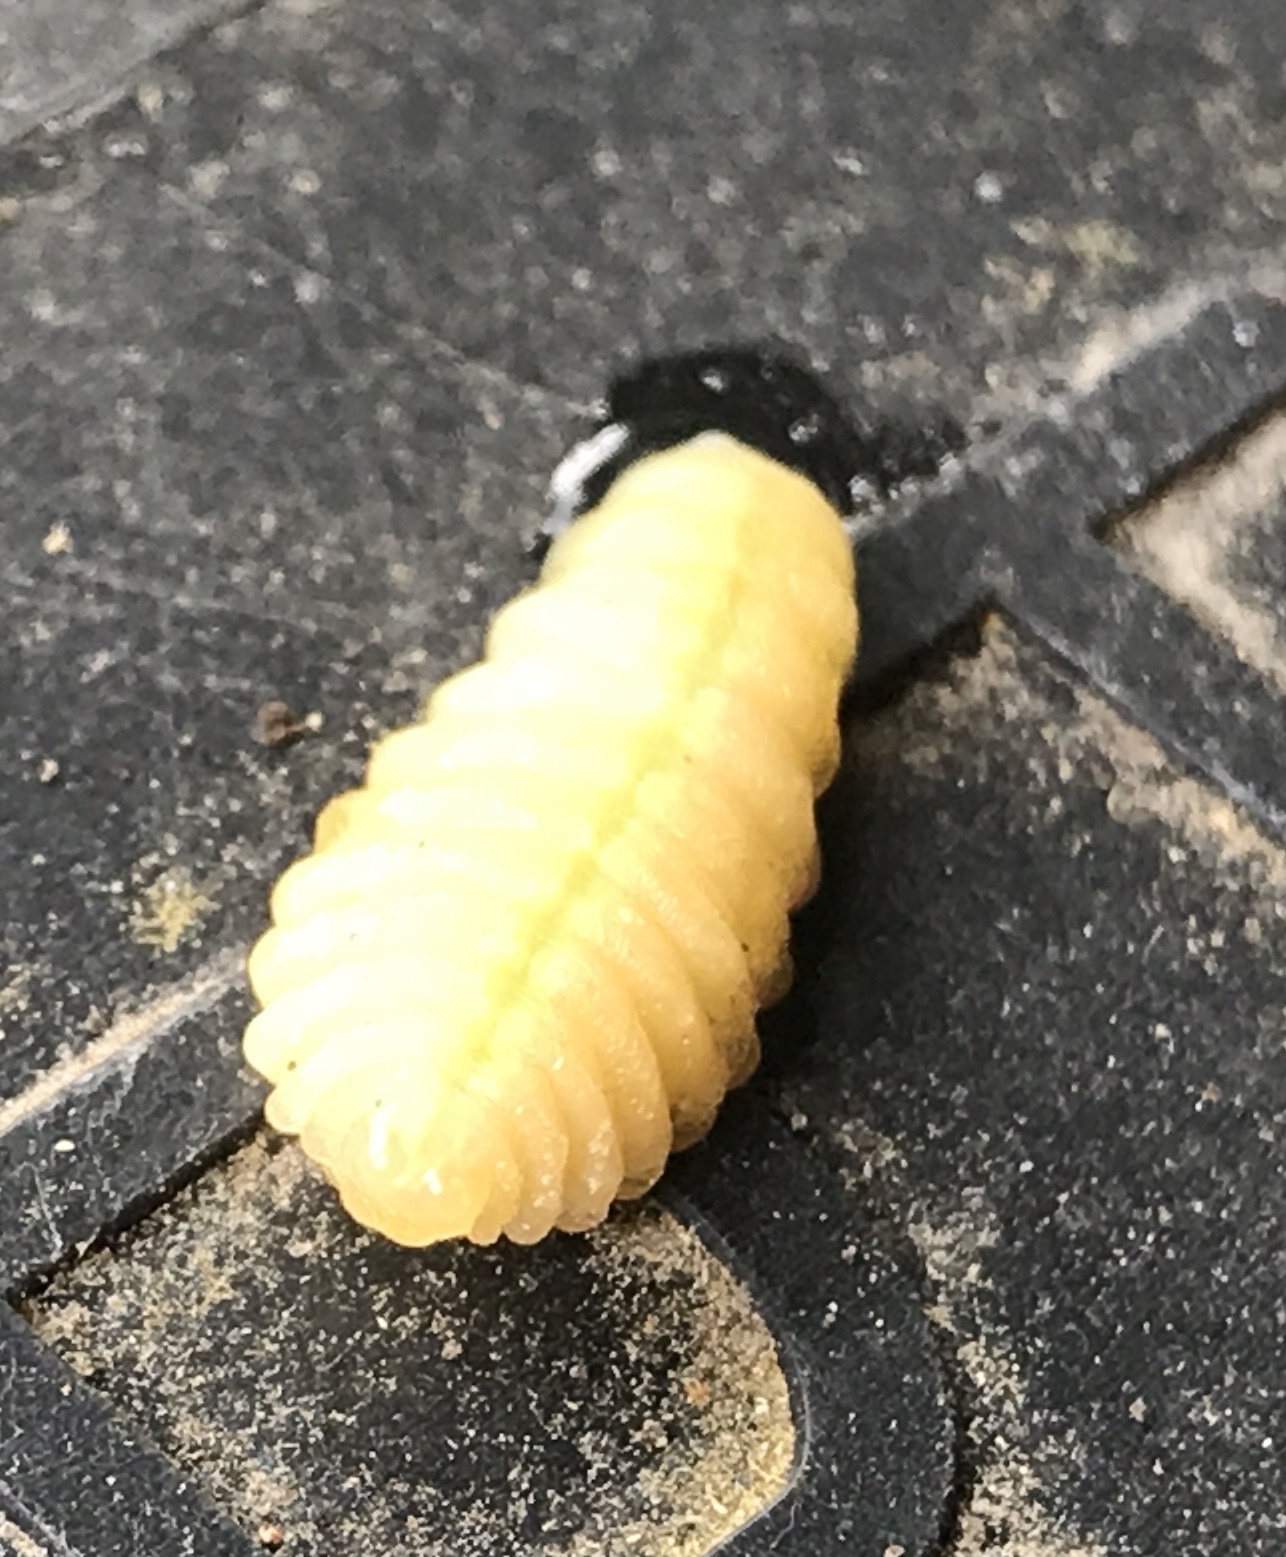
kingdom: Animalia
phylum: Arthropoda
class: Insecta
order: Hymenoptera
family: Sphecidae
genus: Sceliphron
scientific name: Sceliphron caementarium
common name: Mud dauber
